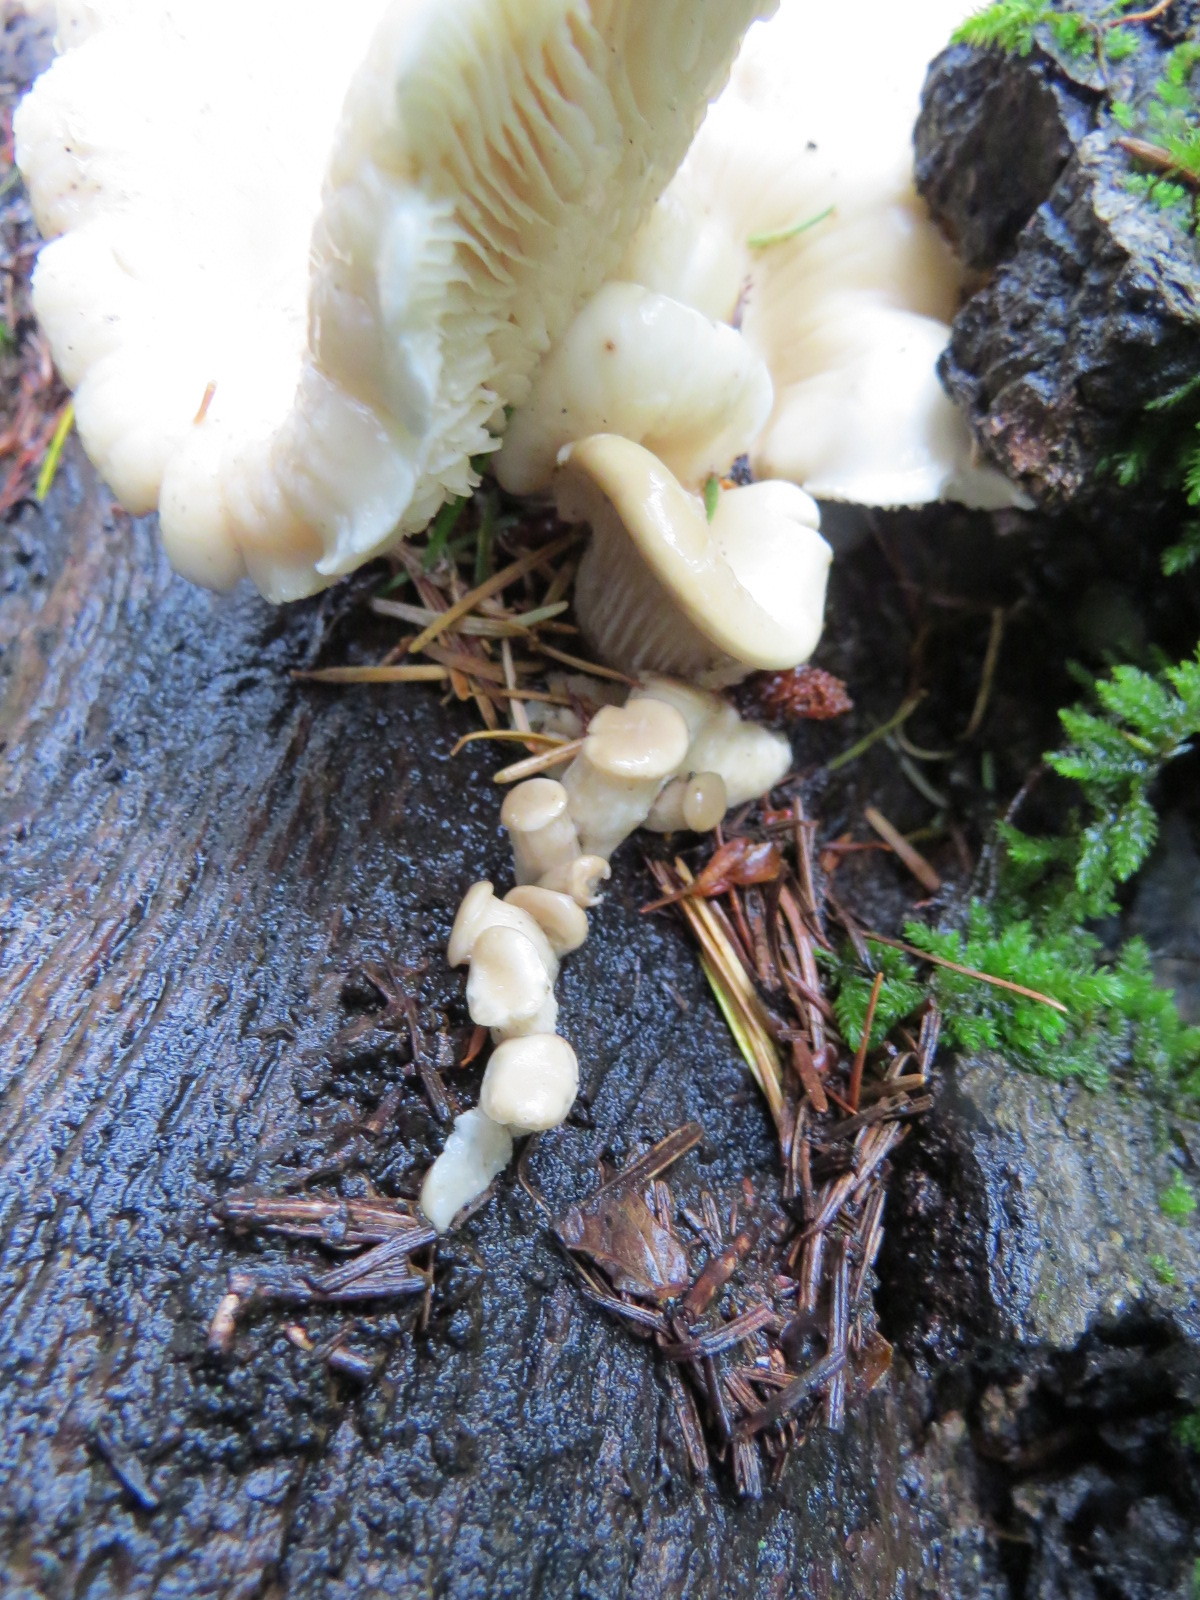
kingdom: Fungi
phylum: Basidiomycota
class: Agaricomycetes
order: Agaricales
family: Pleurotaceae
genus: Pleurotus
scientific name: Pleurotus pulmonarius
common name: Pale oyster
